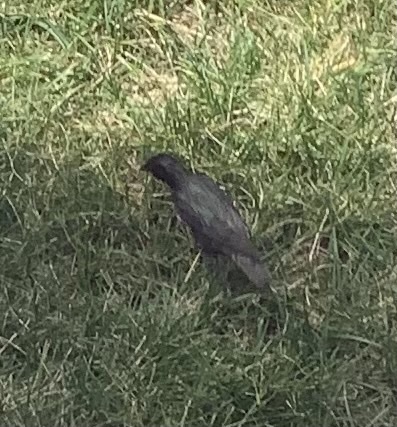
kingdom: Animalia
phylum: Chordata
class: Aves
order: Passeriformes
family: Sturnidae
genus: Sturnus
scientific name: Sturnus vulgaris
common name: Common starling
